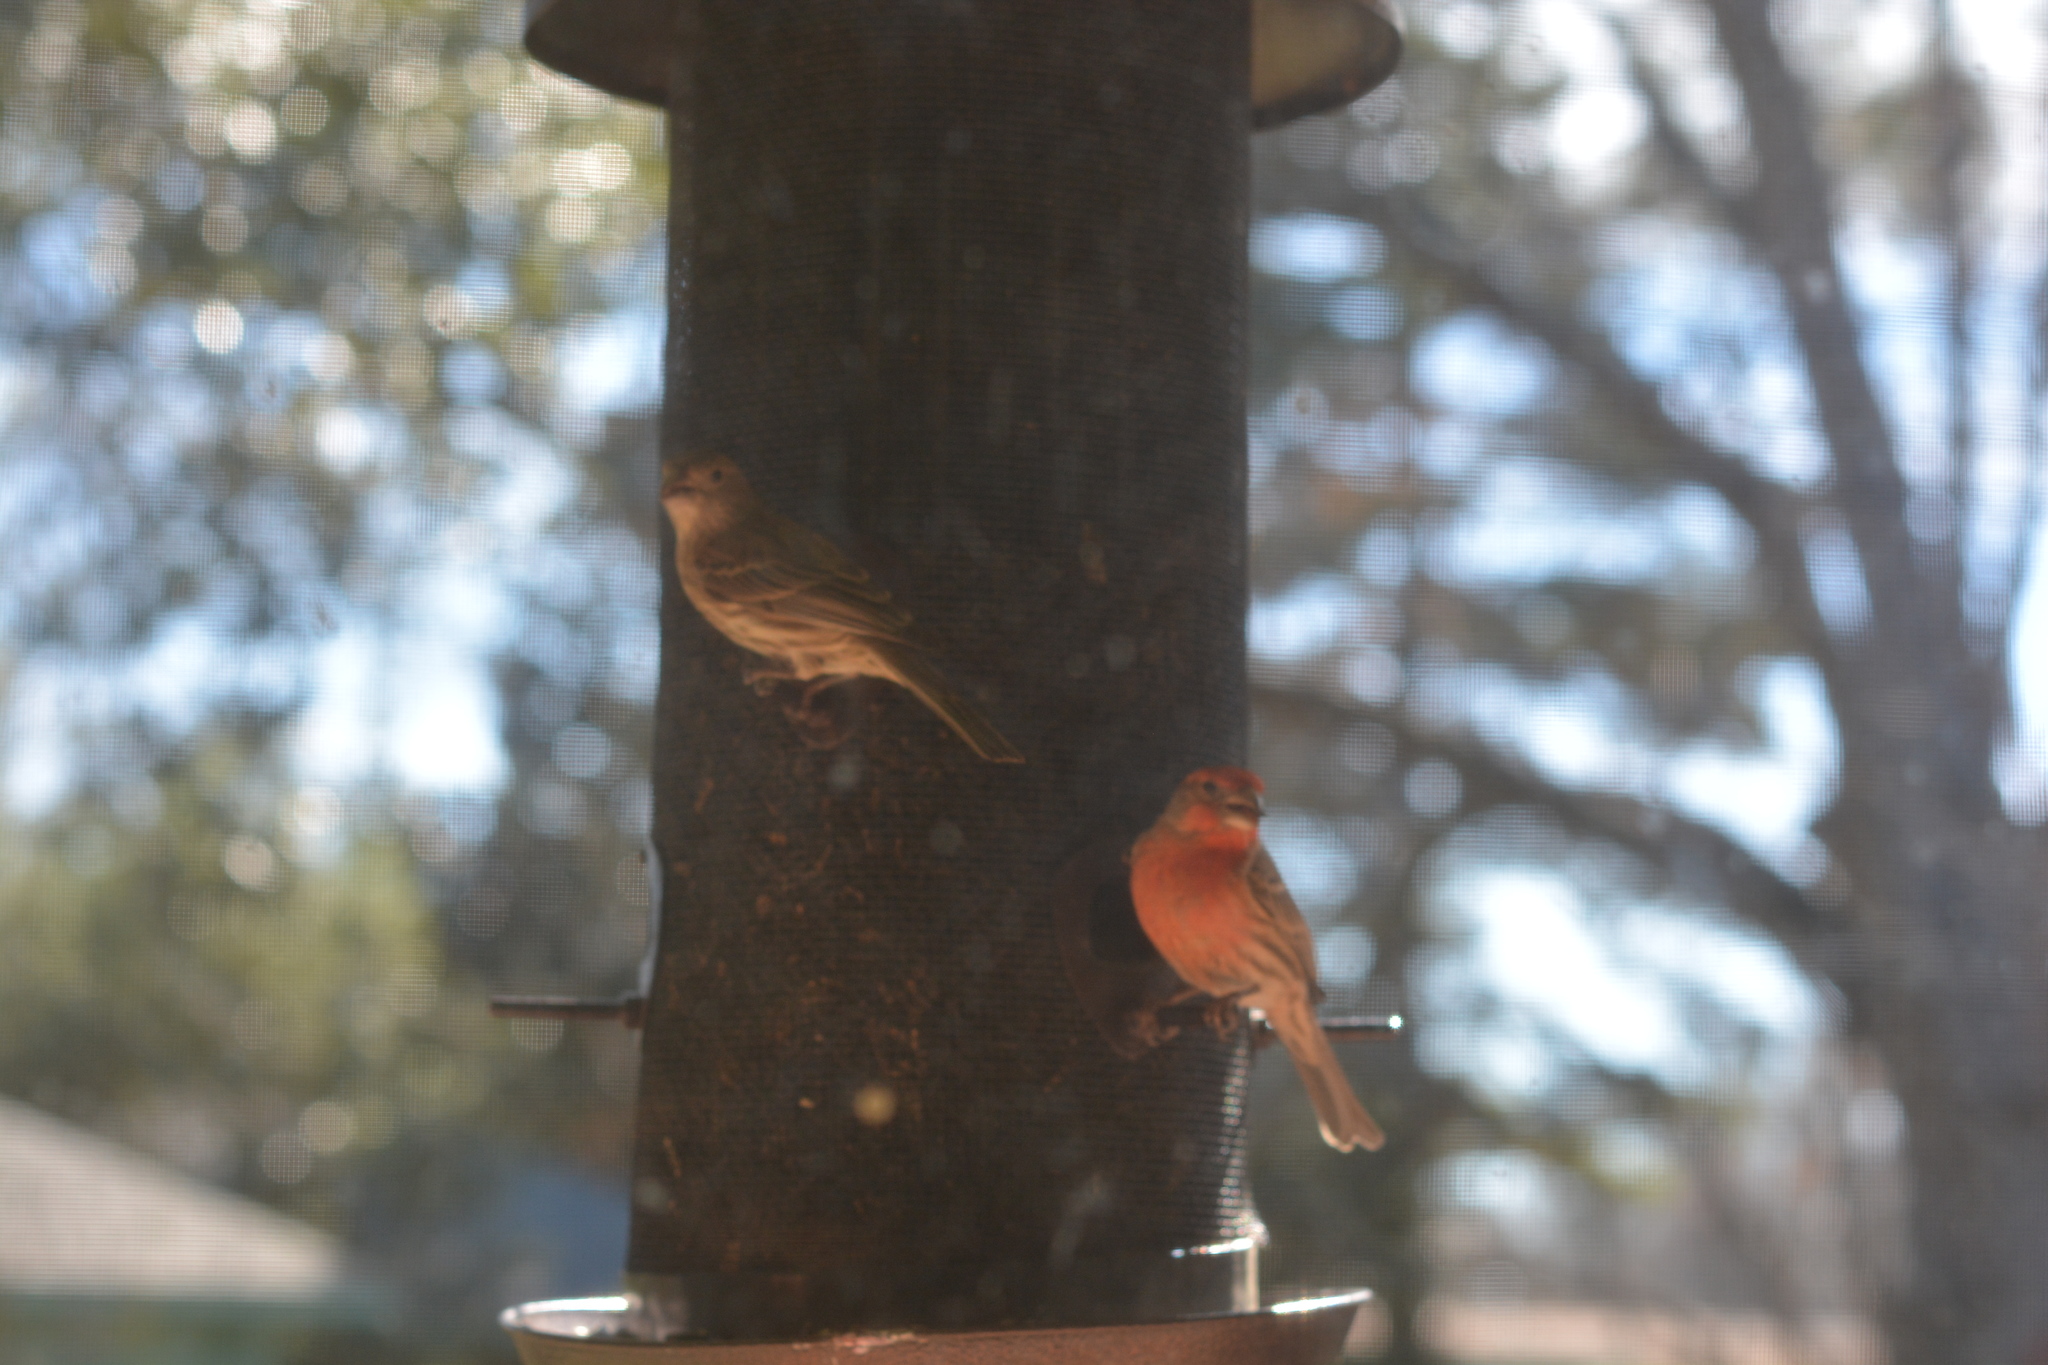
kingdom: Animalia
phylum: Chordata
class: Aves
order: Passeriformes
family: Fringillidae
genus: Haemorhous
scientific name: Haemorhous mexicanus
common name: House finch
